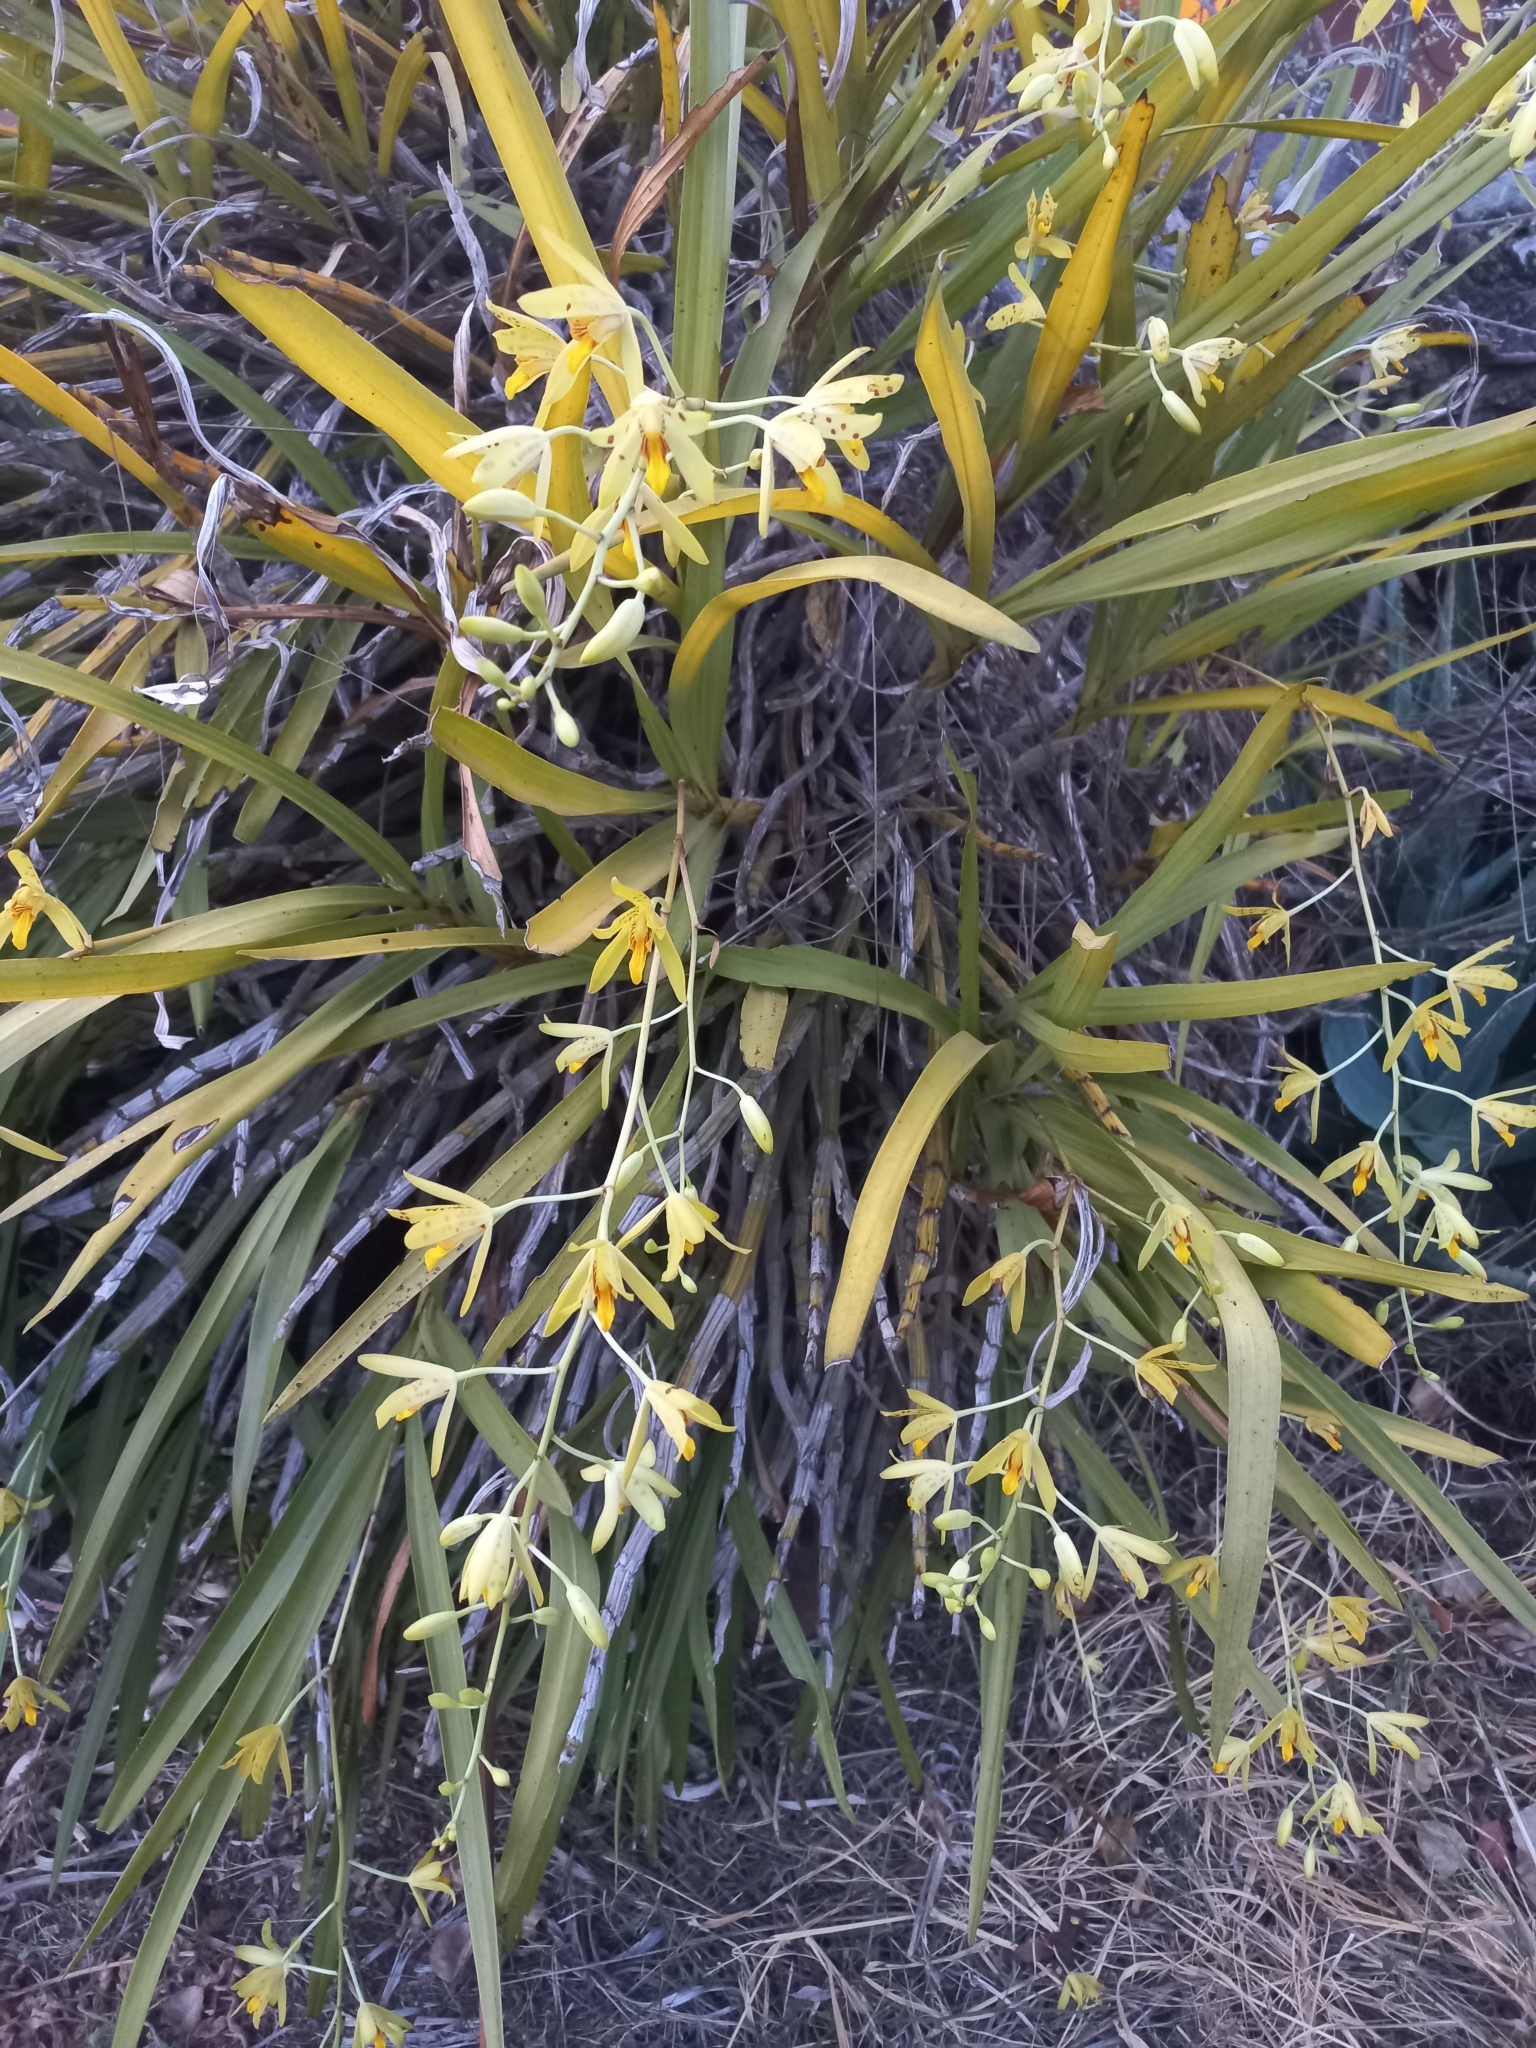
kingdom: Plantae
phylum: Tracheophyta
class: Liliopsida
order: Asparagales
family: Orchidaceae
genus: Ansellia
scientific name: Ansellia africana
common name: African ansellia
